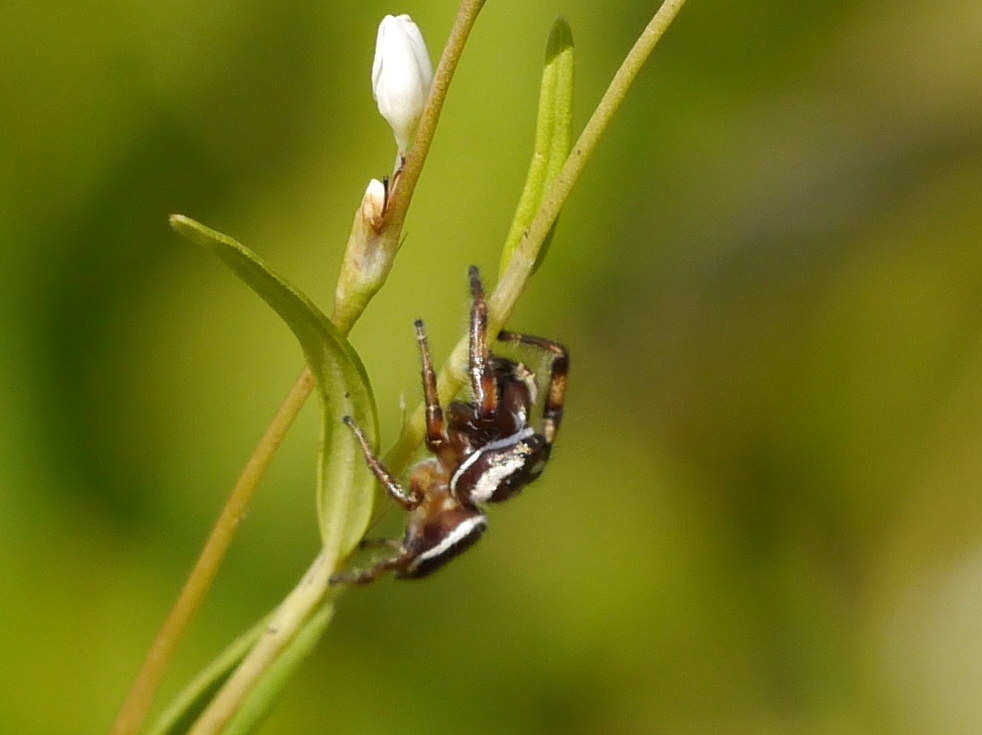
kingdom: Animalia
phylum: Arthropoda
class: Arachnida
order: Araneae
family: Salticidae
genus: Eris
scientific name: Eris flava
